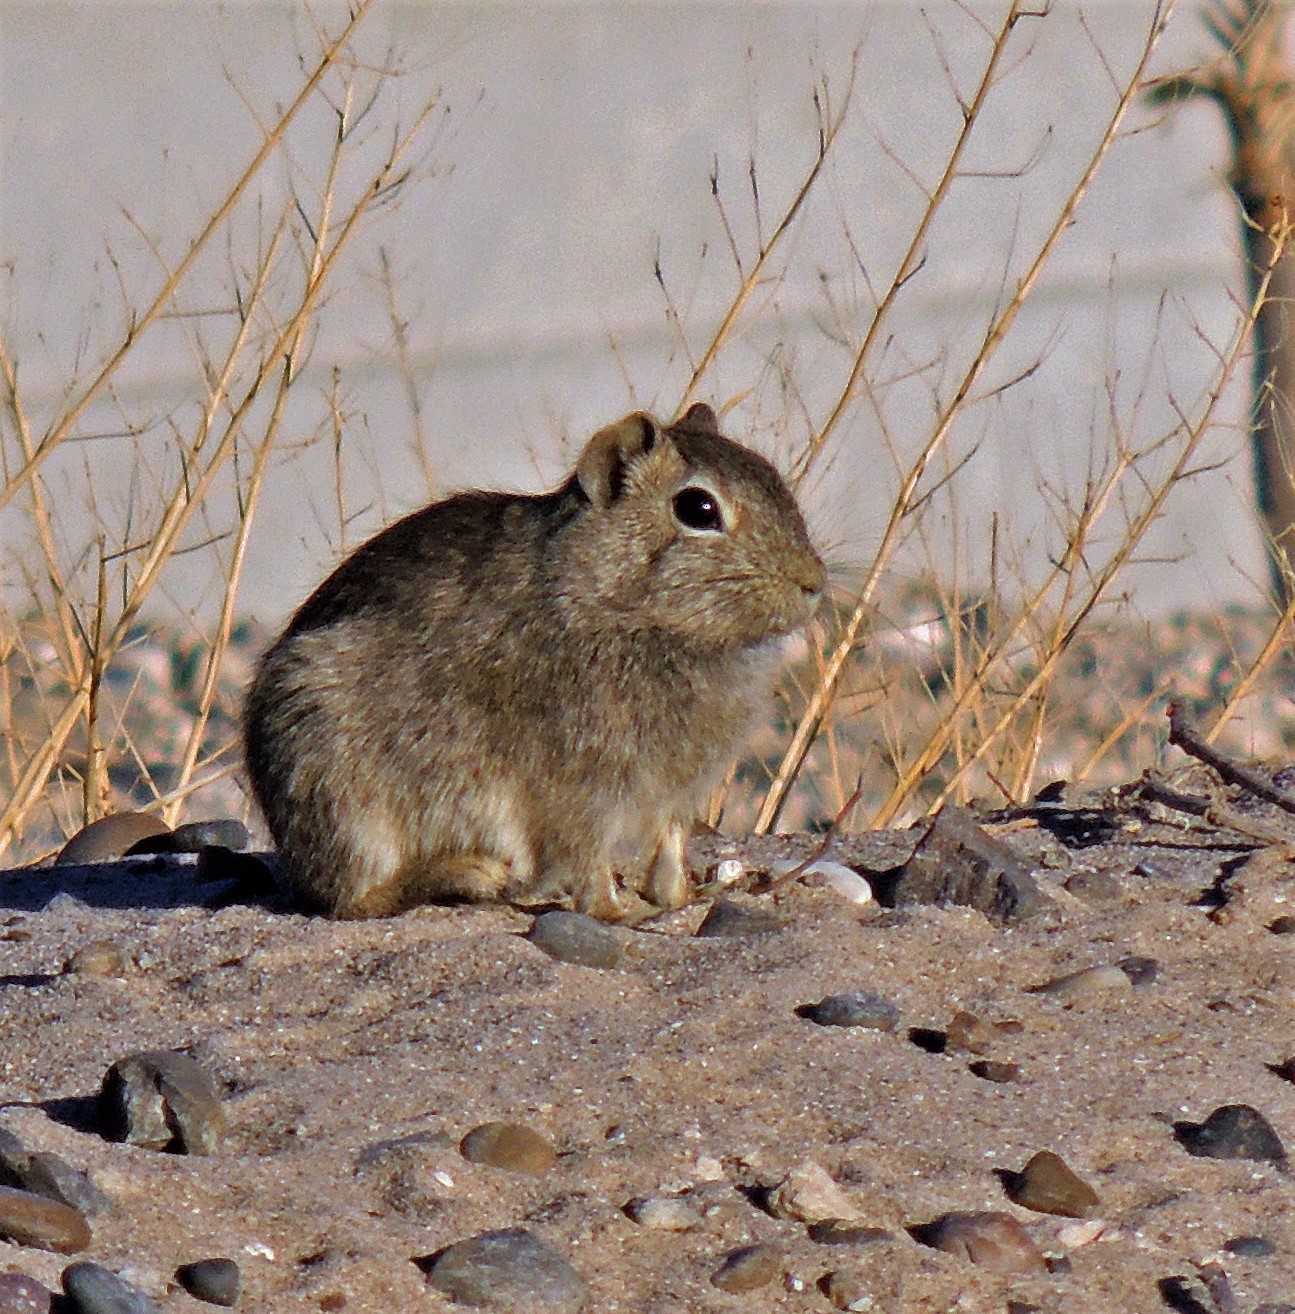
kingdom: Animalia
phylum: Chordata
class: Mammalia
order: Rodentia
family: Caviidae
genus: Microcavia
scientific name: Microcavia australis
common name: Southern mountain cavy
